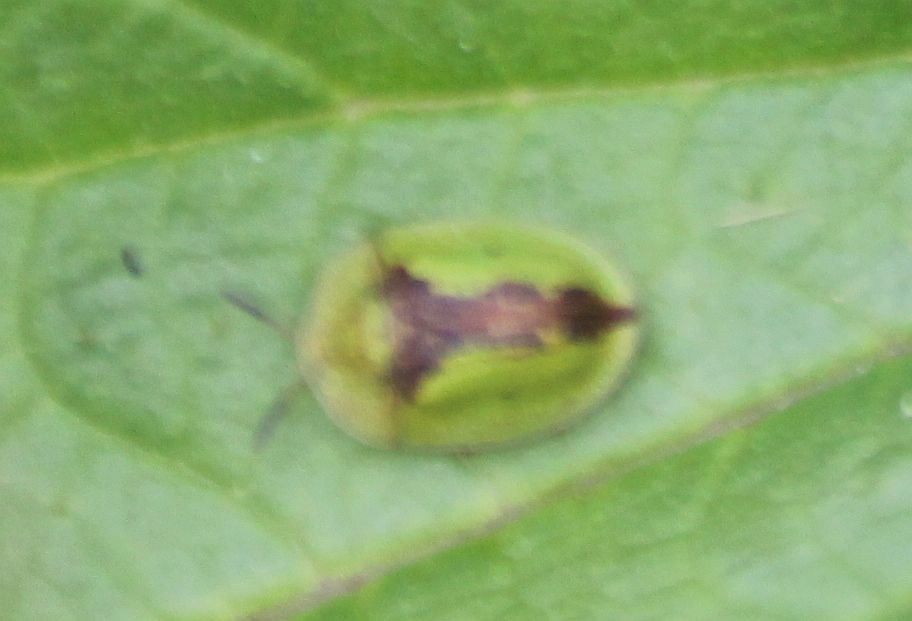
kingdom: Animalia
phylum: Arthropoda
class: Insecta
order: Coleoptera
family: Chrysomelidae
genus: Cassida
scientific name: Cassida vibex
